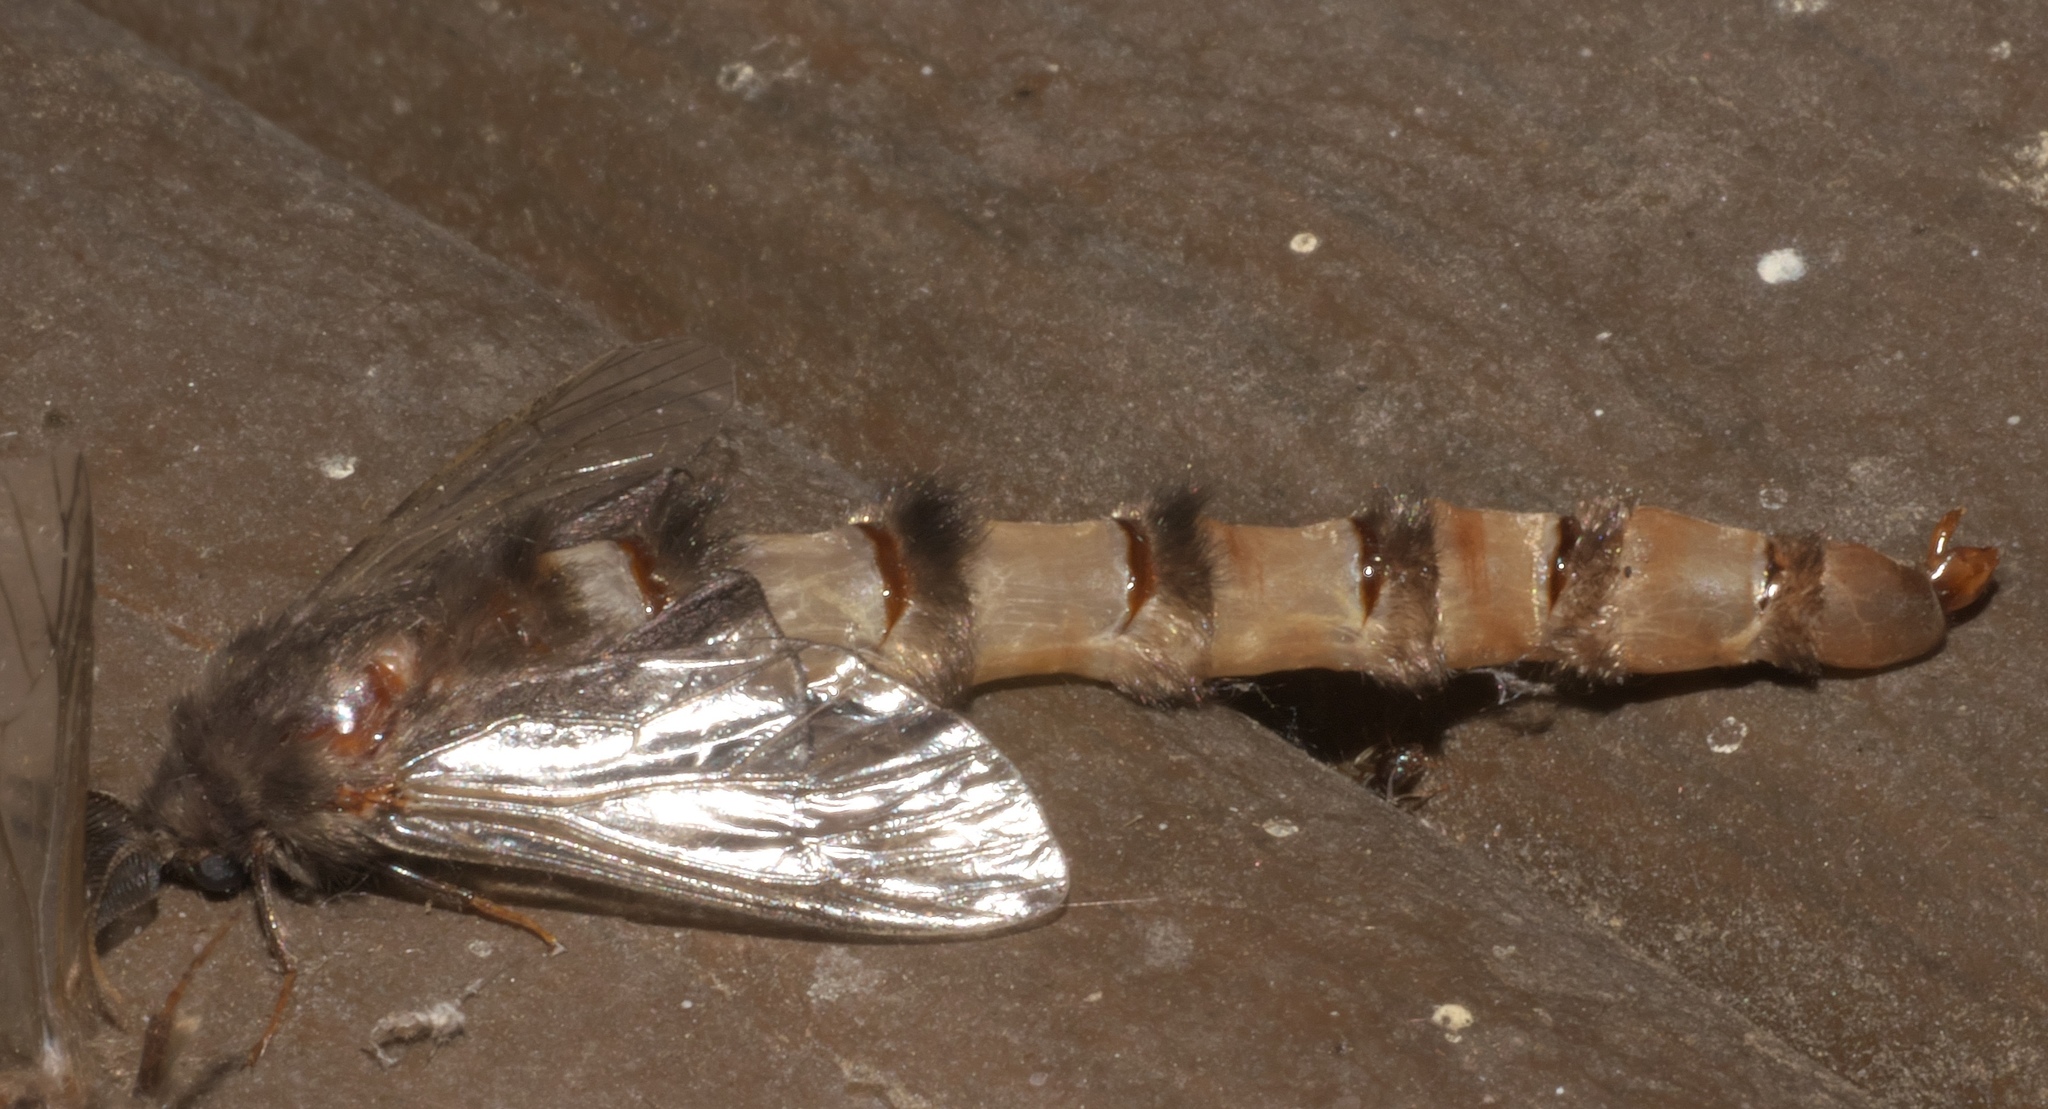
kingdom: Animalia
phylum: Arthropoda
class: Insecta
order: Lepidoptera
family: Psychidae
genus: Thyridopteryx
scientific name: Thyridopteryx ephemeraeformis
